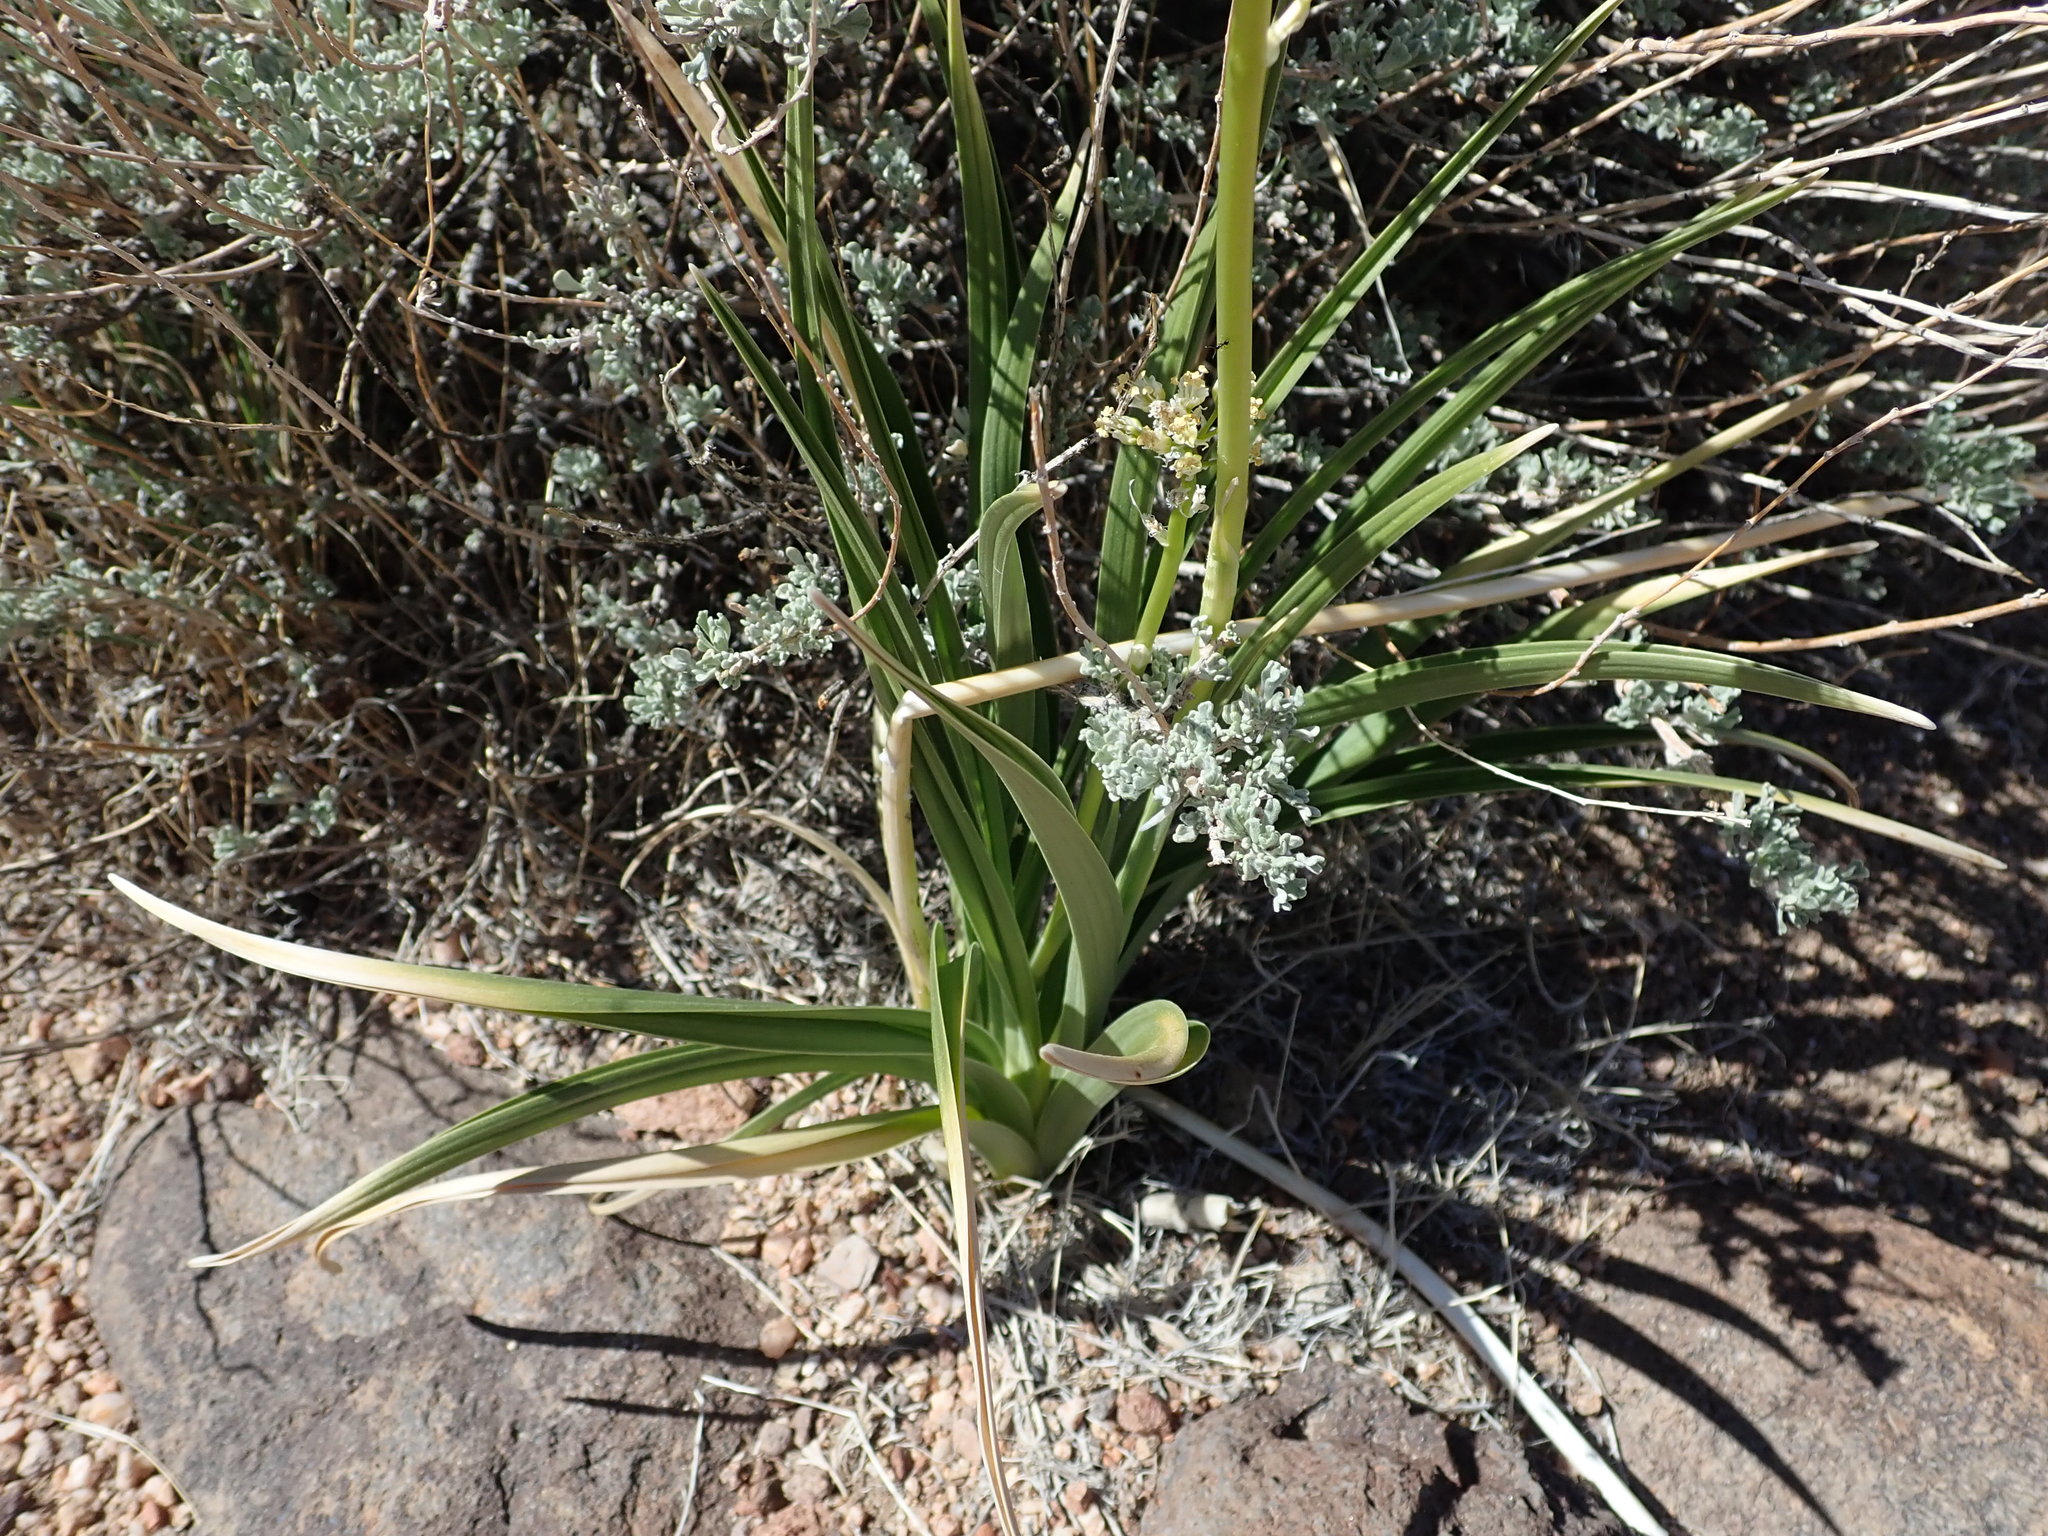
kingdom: Plantae
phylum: Tracheophyta
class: Liliopsida
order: Liliales
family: Melanthiaceae
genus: Toxicoscordion
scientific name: Toxicoscordion paniculatum
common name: Foothill death camas
